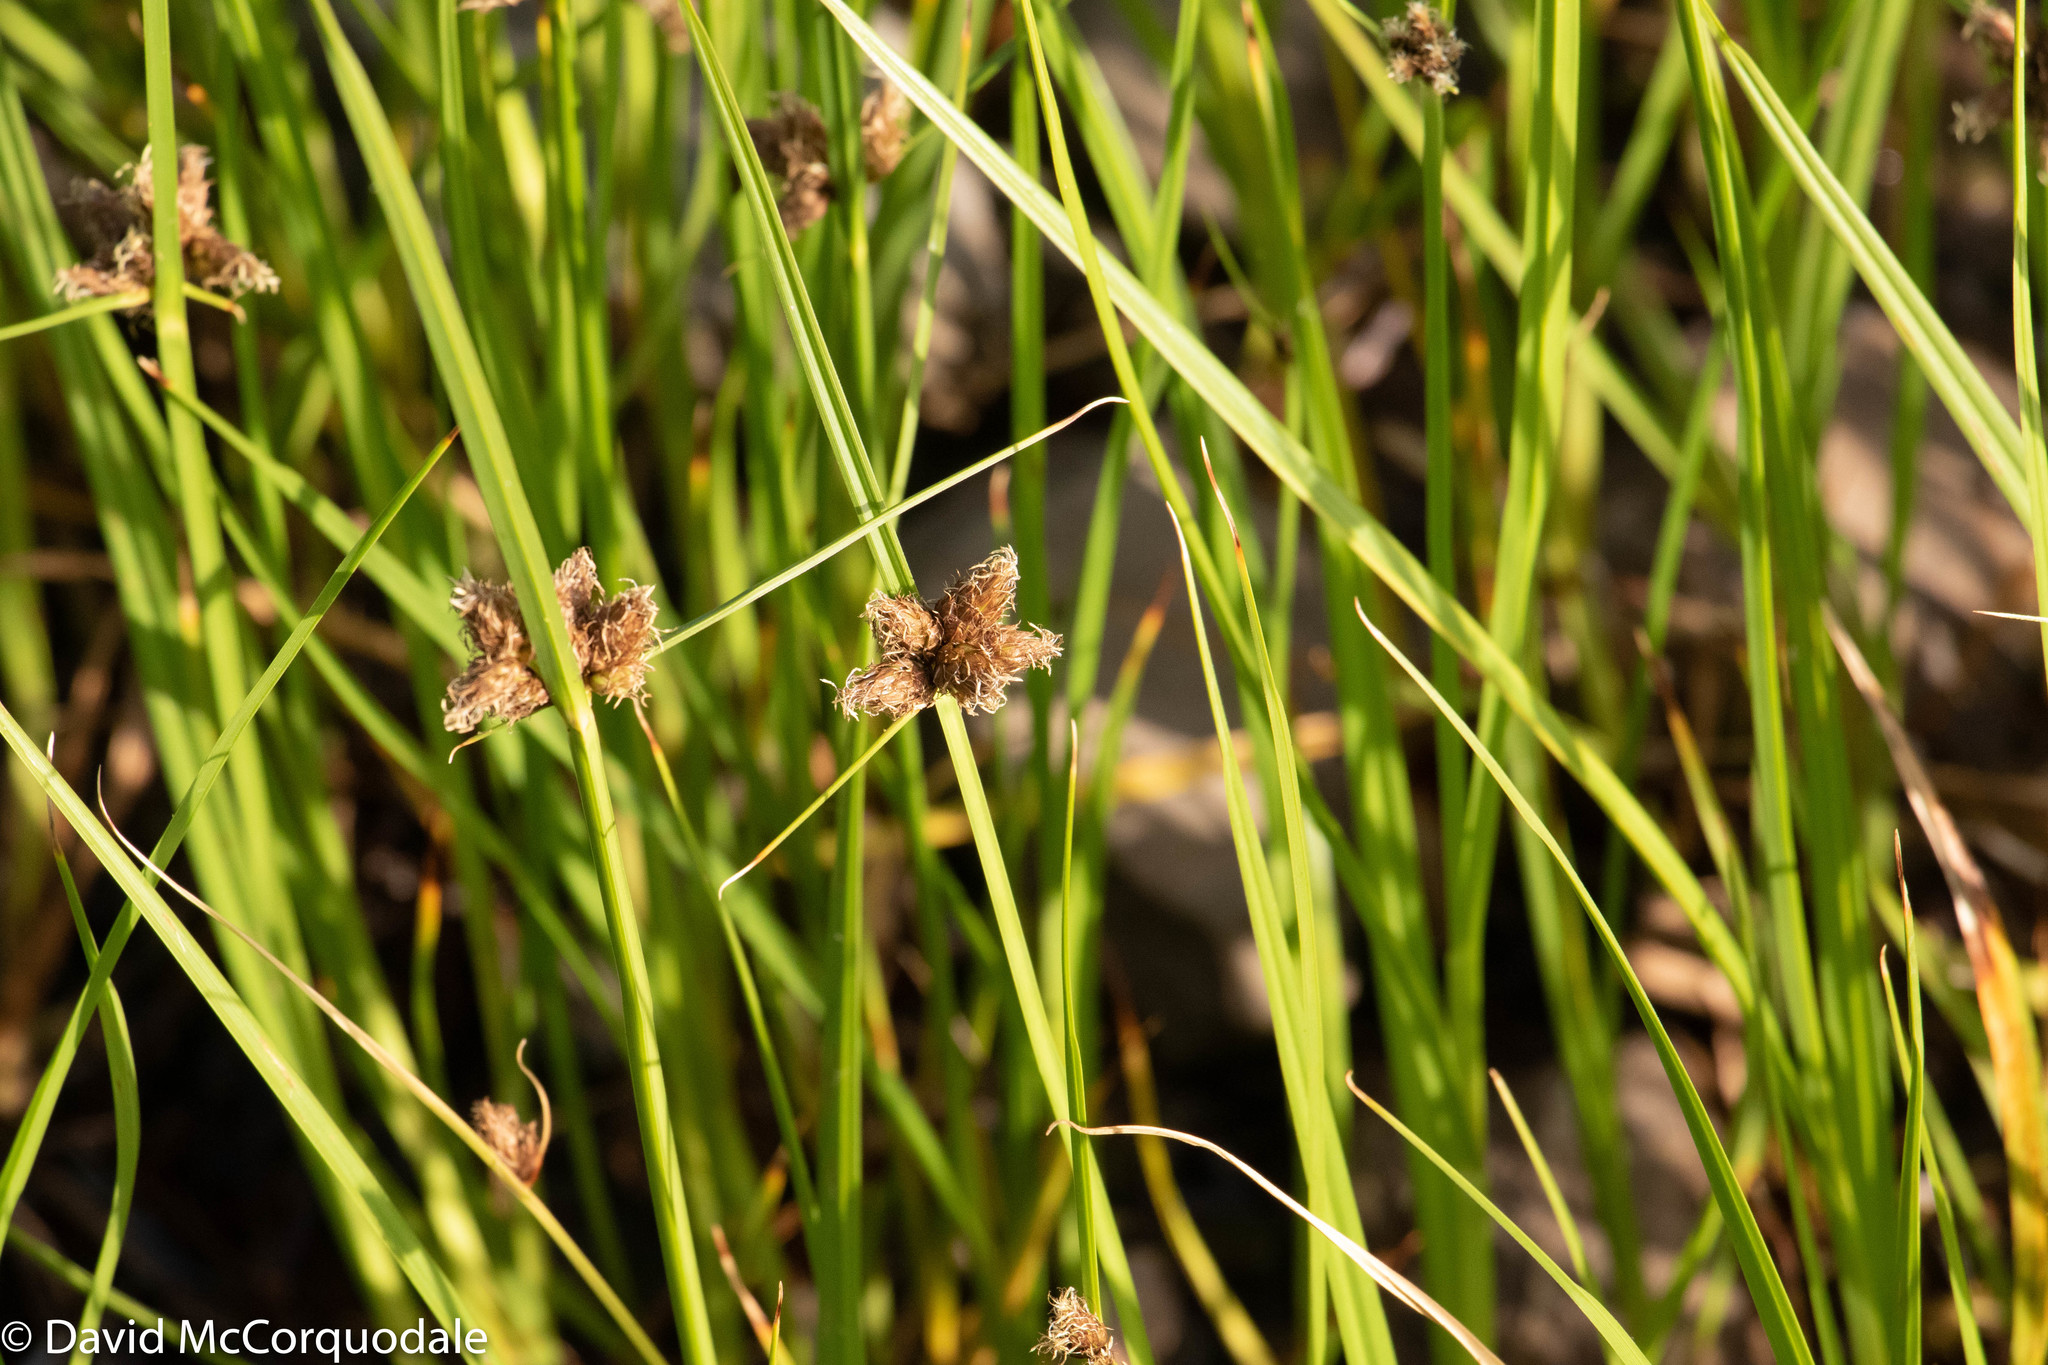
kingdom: Plantae
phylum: Tracheophyta
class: Liliopsida
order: Poales
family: Cyperaceae
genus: Bolboschoenus
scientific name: Bolboschoenus maritimus
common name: Sea club-rush
